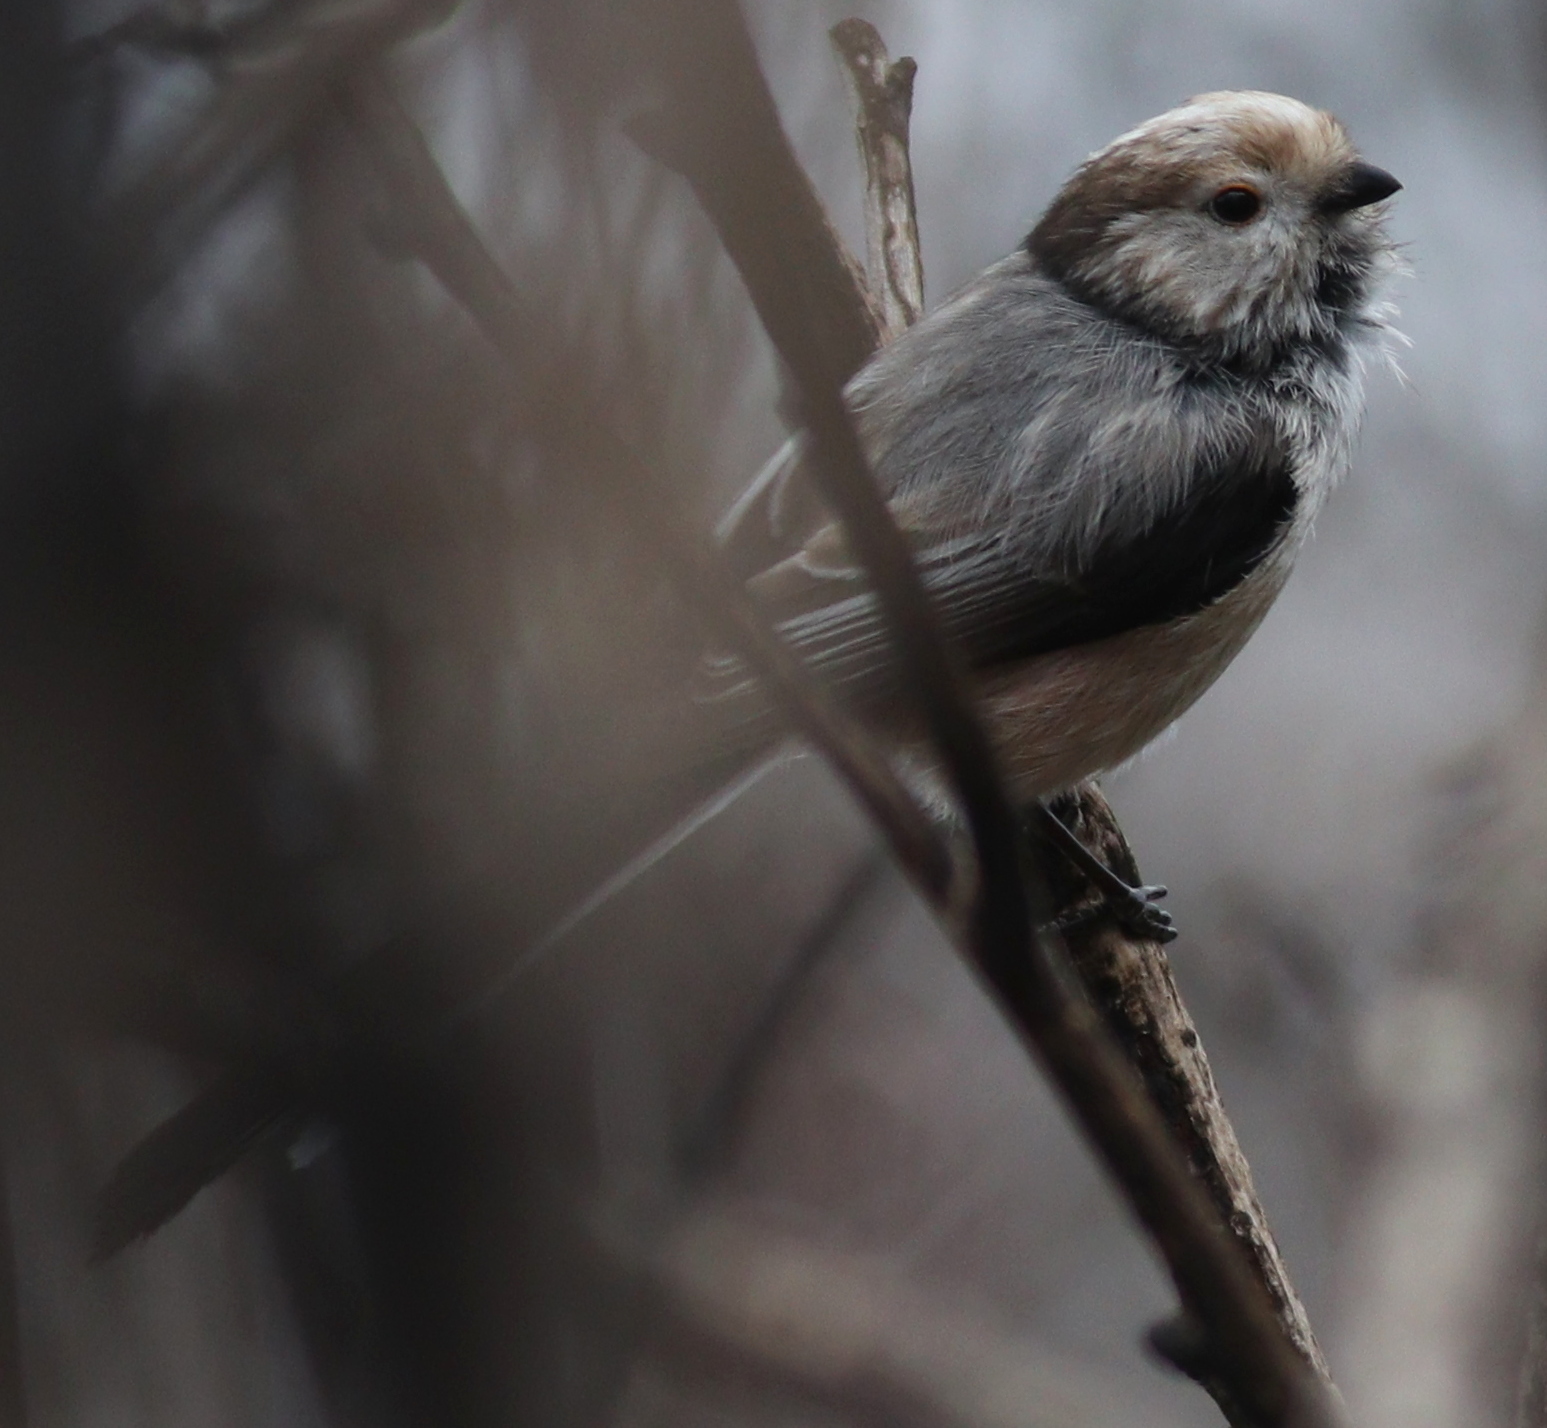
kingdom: Animalia
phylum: Chordata
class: Aves
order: Passeriformes
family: Aegithalidae
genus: Aegithalos
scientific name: Aegithalos caudatus
